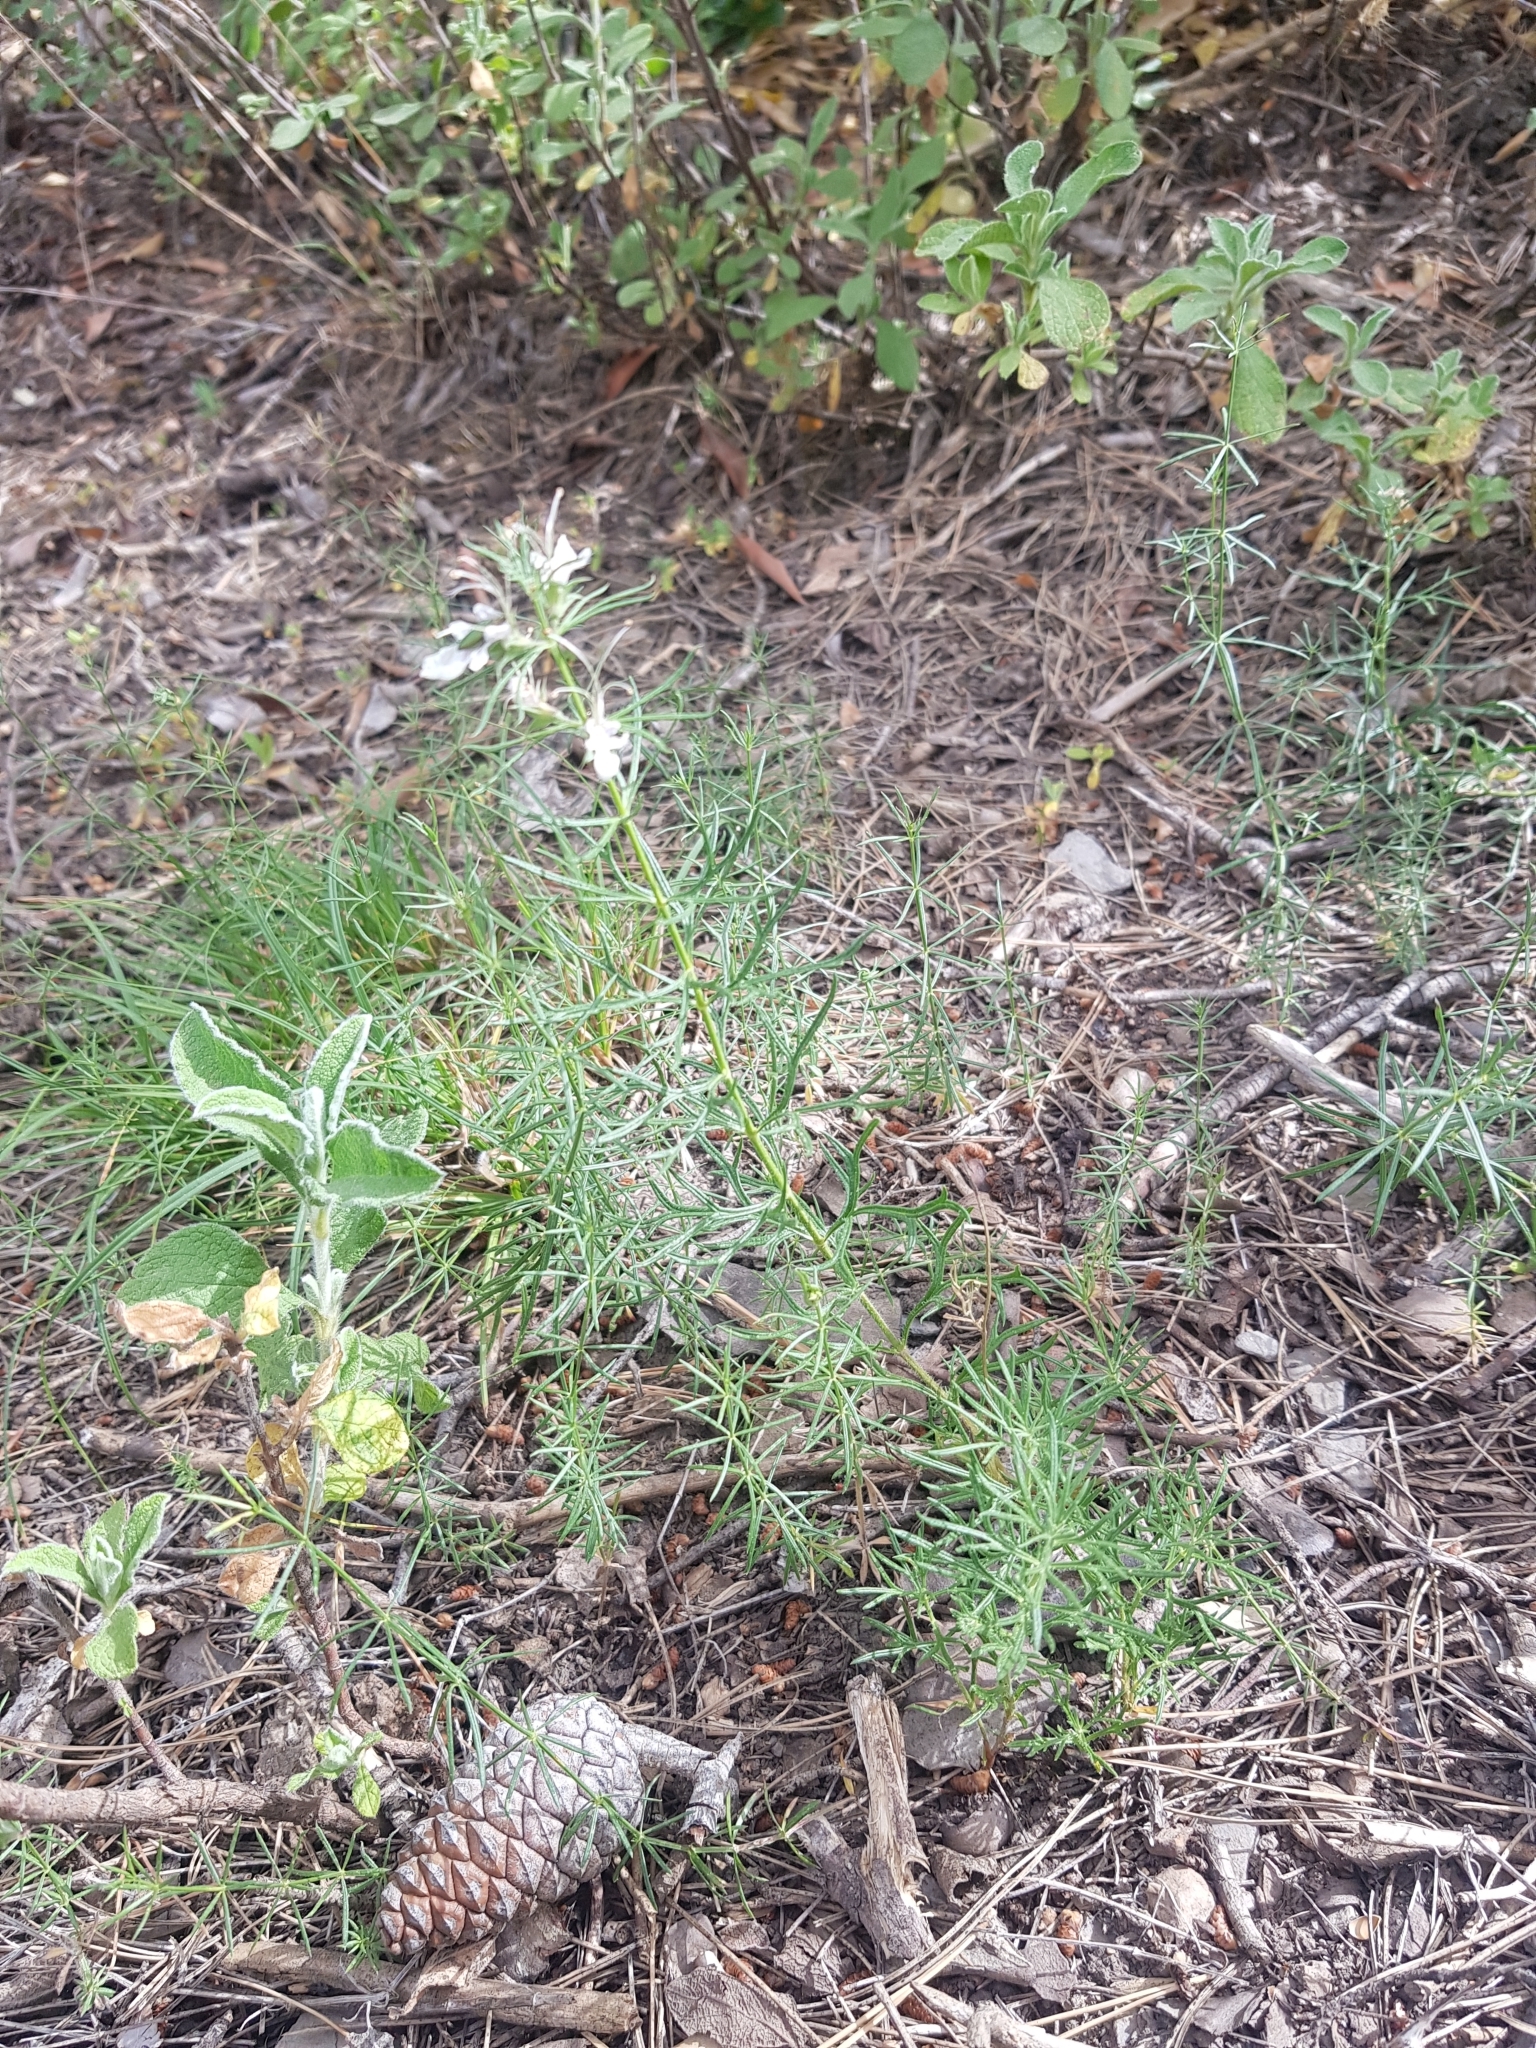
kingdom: Plantae
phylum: Tracheophyta
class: Magnoliopsida
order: Lamiales
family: Lamiaceae
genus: Teucrium
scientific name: Teucrium pseudochamaepitys
